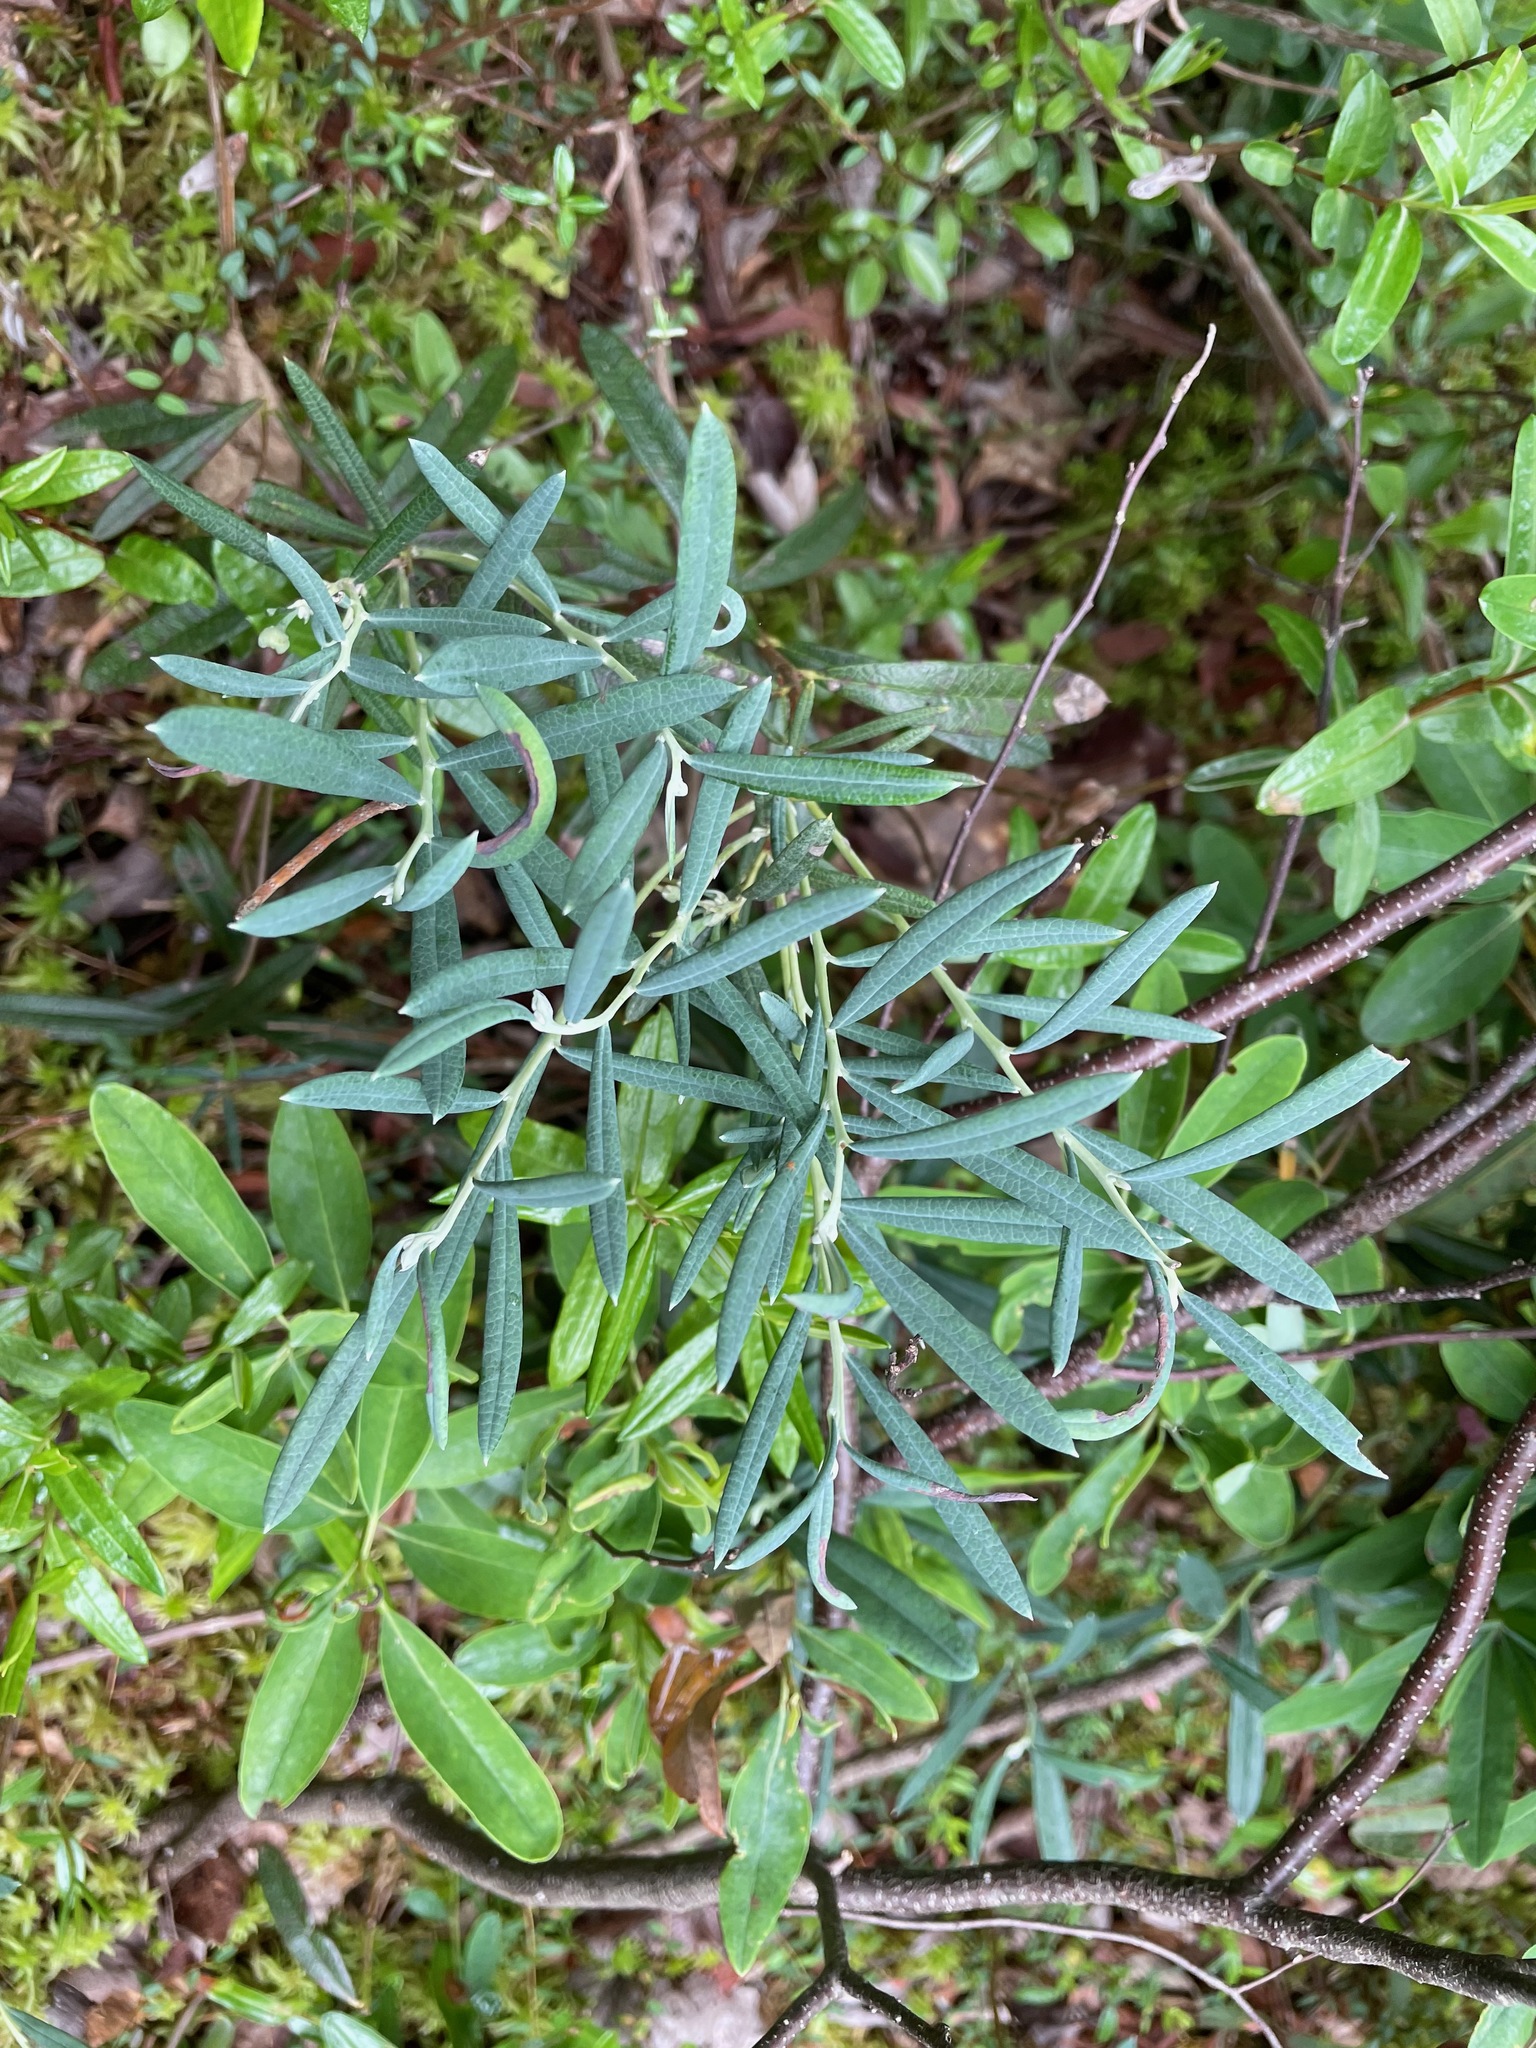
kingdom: Plantae
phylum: Tracheophyta
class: Magnoliopsida
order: Ericales
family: Ericaceae
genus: Andromeda
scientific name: Andromeda polifolia
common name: Bog-rosemary
